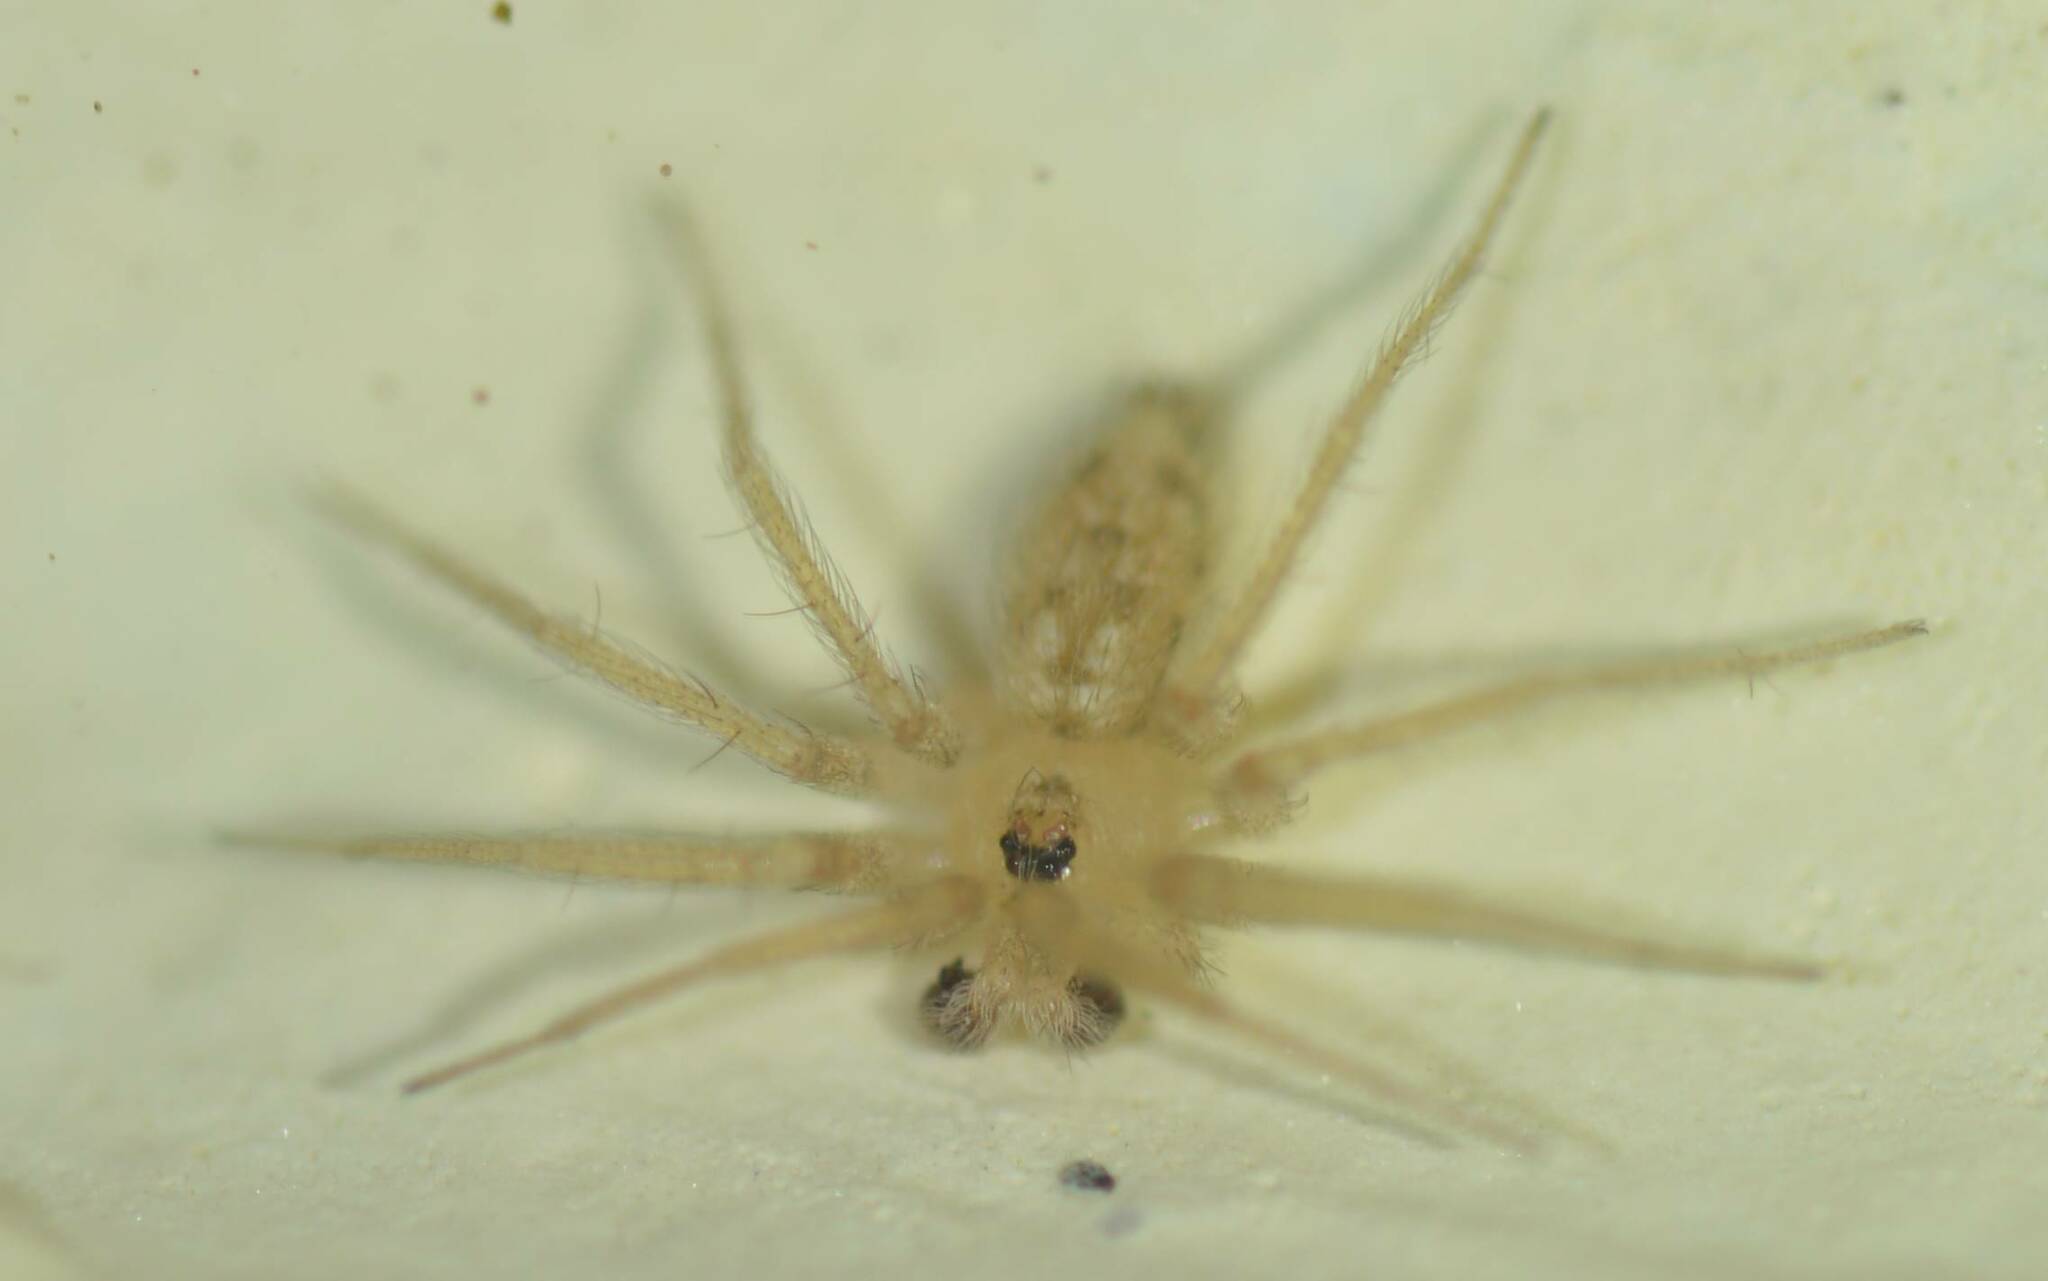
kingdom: Animalia
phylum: Arthropoda
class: Arachnida
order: Araneae
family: Oecobiidae
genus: Oecobius
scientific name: Oecobius putus
